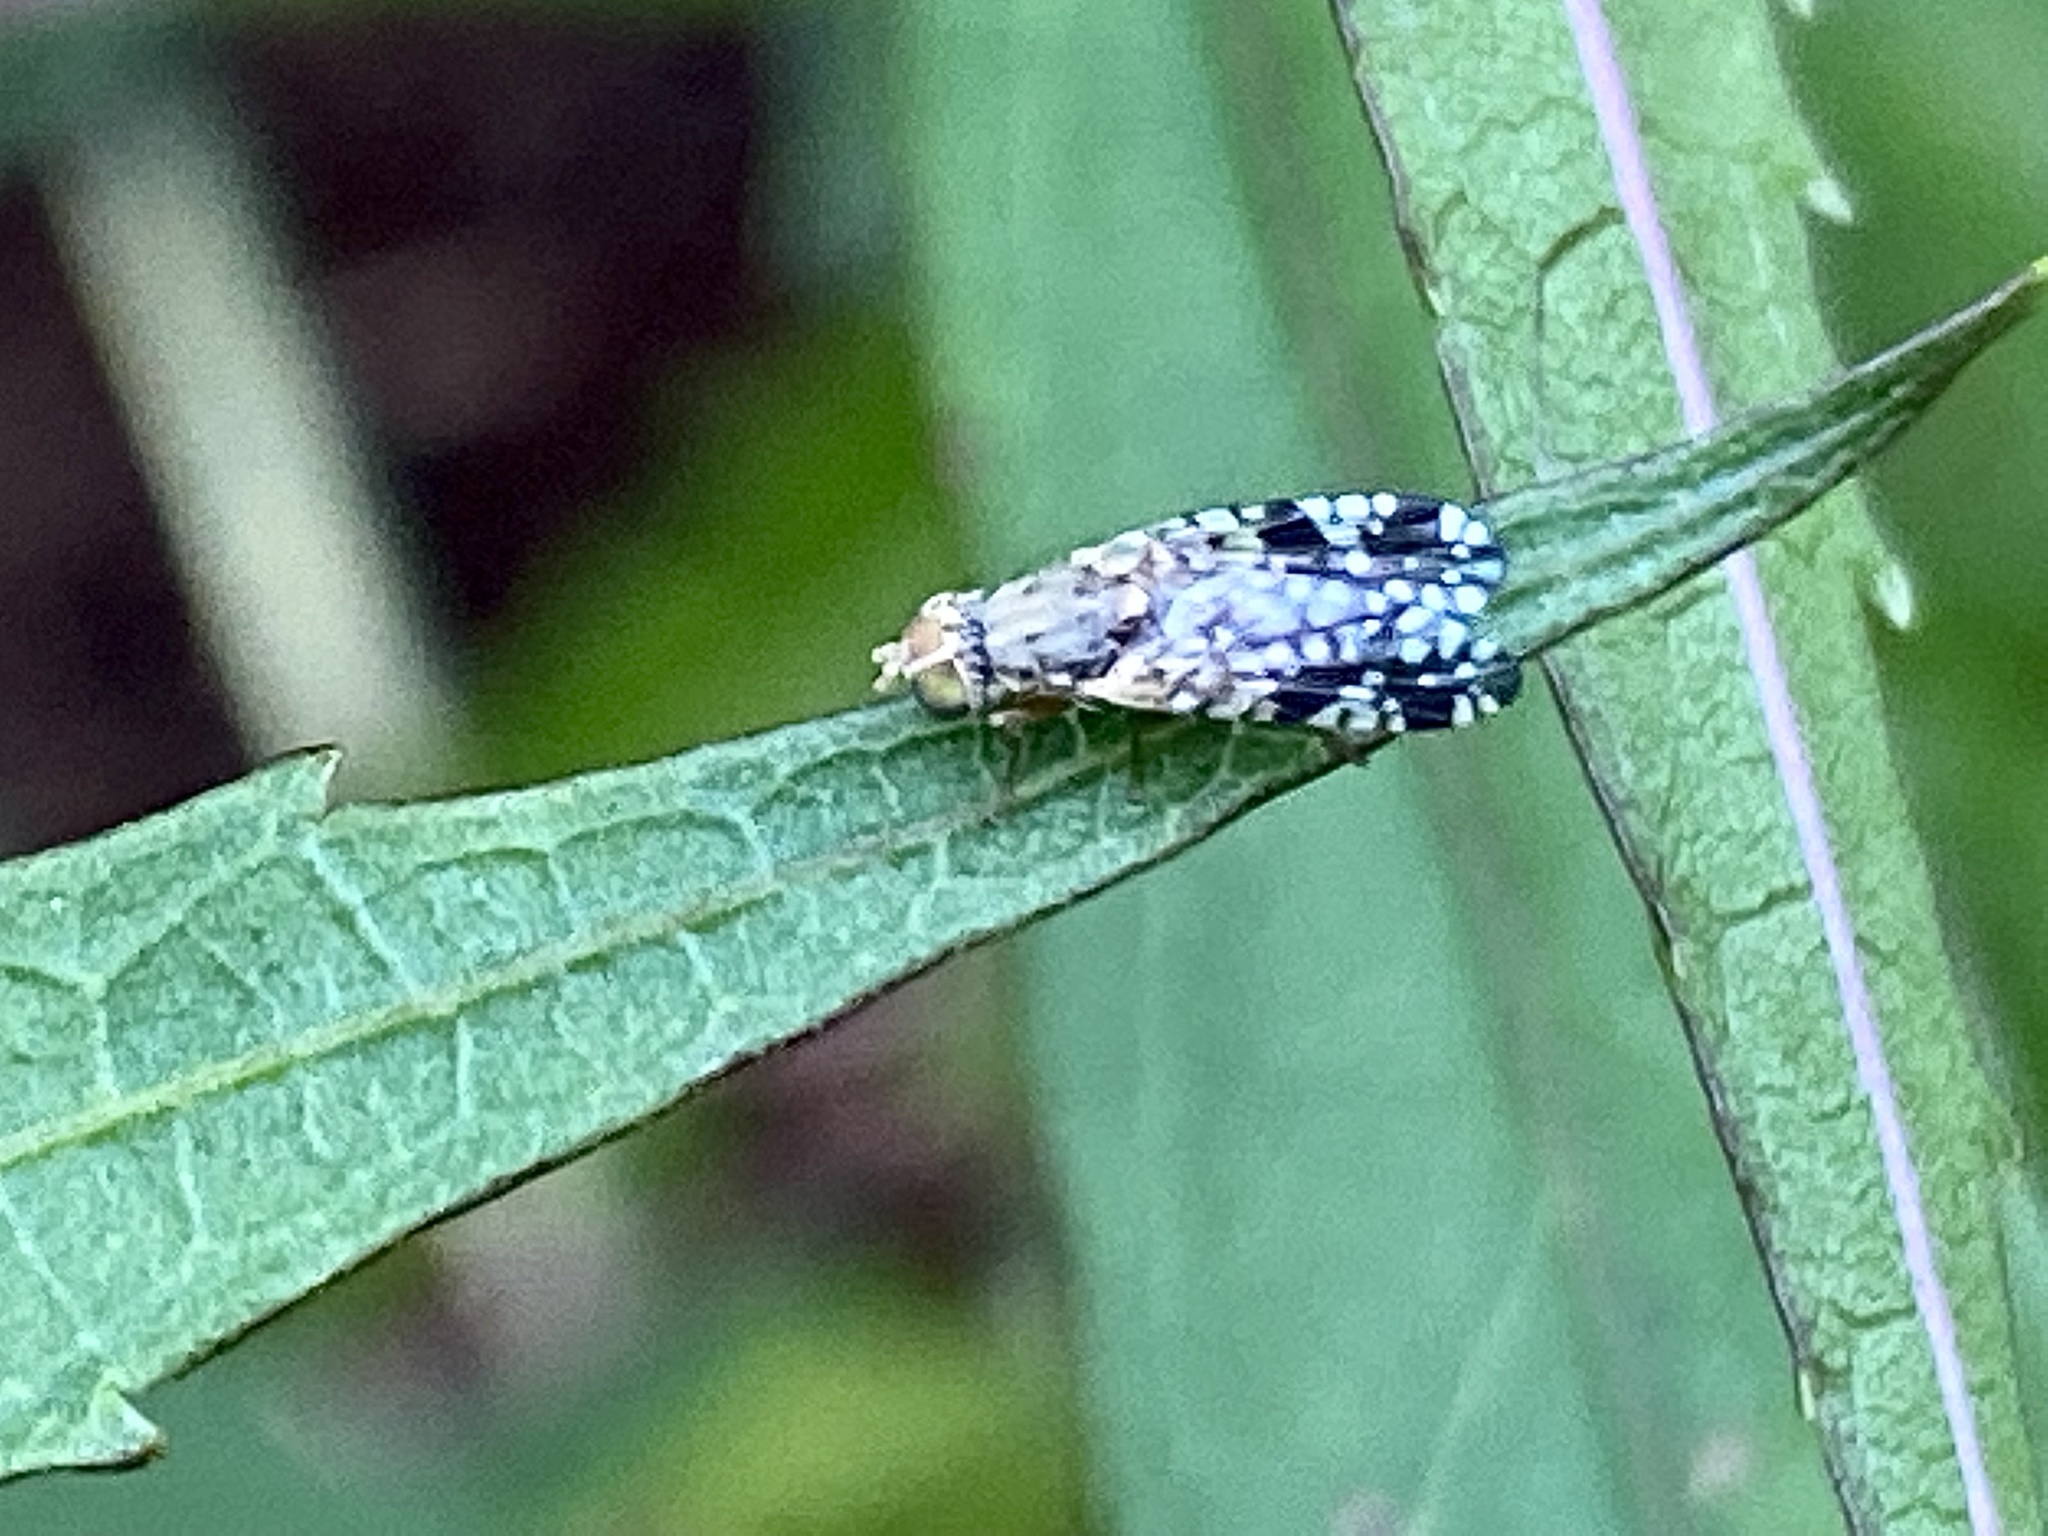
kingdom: Animalia
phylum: Arthropoda
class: Insecta
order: Diptera
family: Tephritidae
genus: Neotephritis
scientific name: Neotephritis finalis
